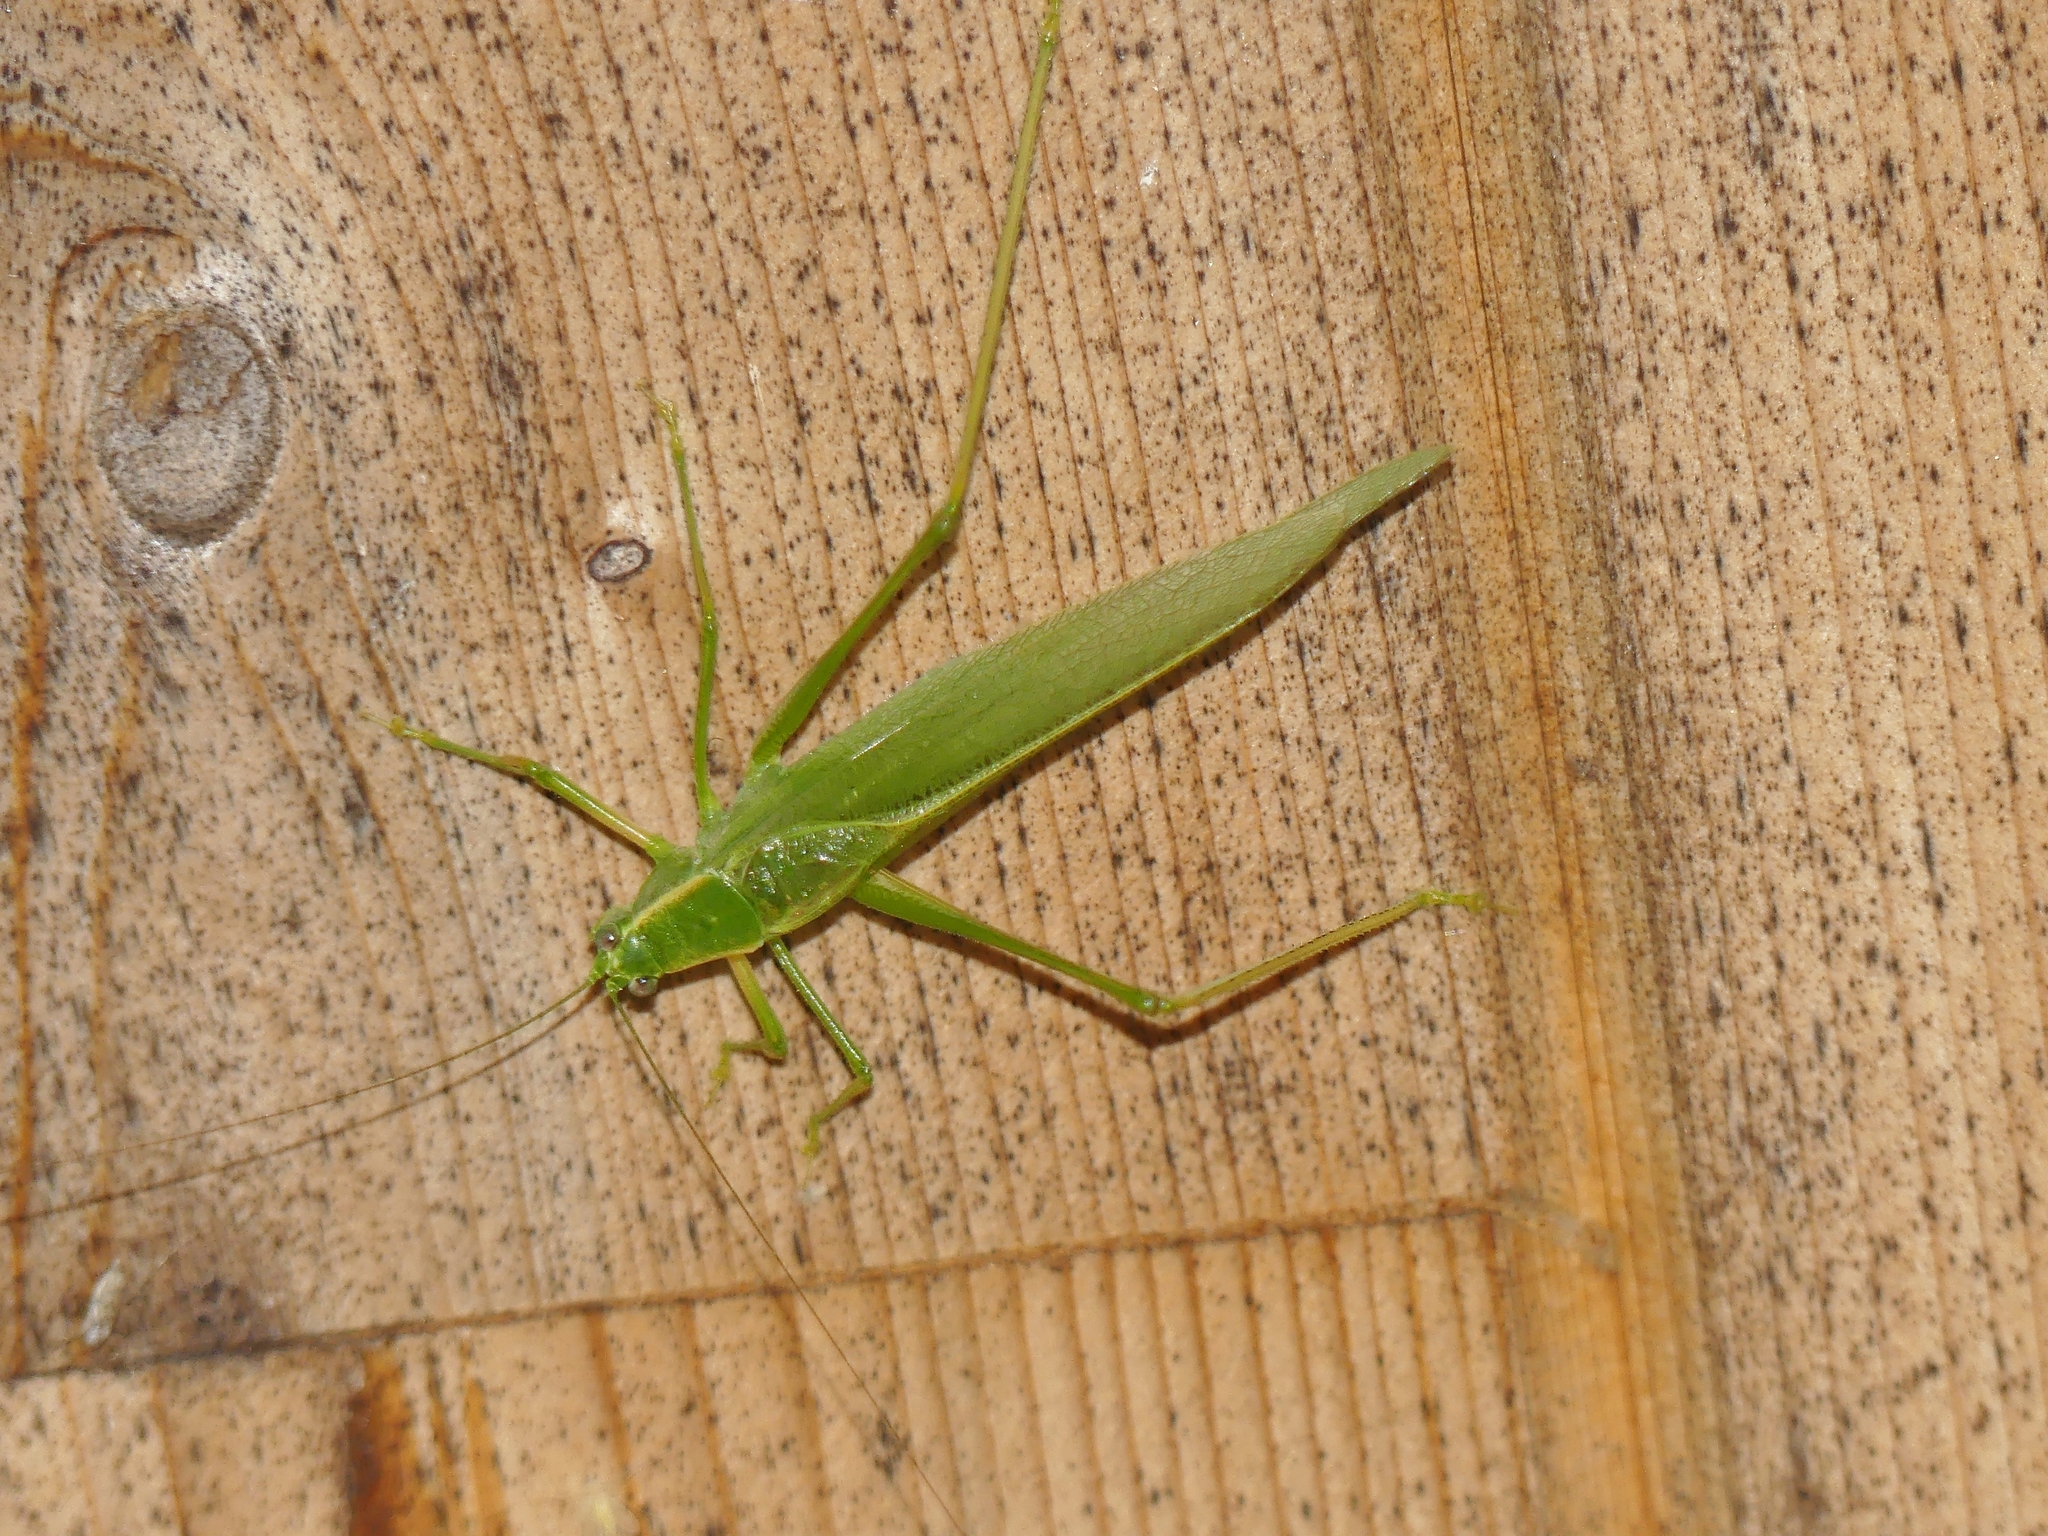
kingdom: Animalia
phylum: Arthropoda
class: Insecta
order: Orthoptera
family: Tettigoniidae
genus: Scudderia
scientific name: Scudderia septentrionalis
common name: Northern bush-katydid
